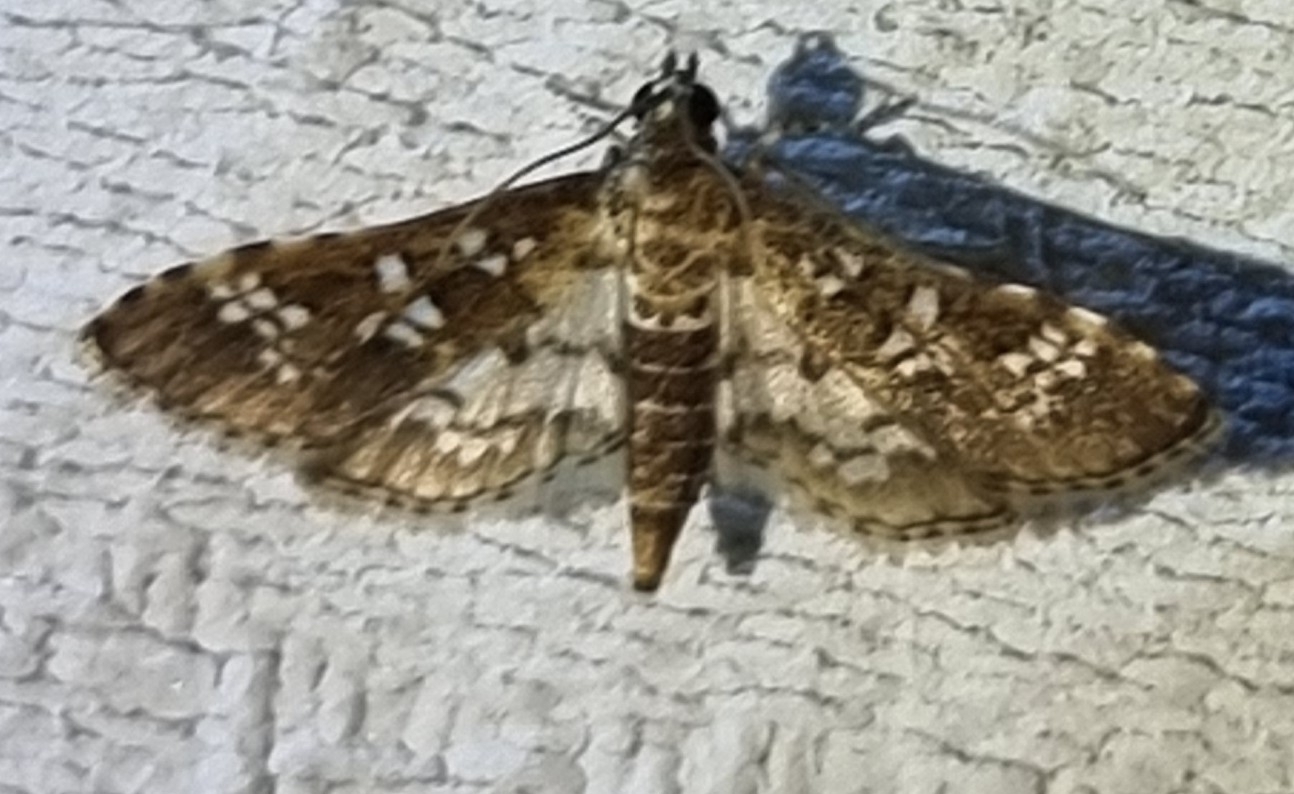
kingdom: Animalia
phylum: Arthropoda
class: Insecta
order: Lepidoptera
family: Crambidae
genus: Samea
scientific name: Samea multiplicalis
